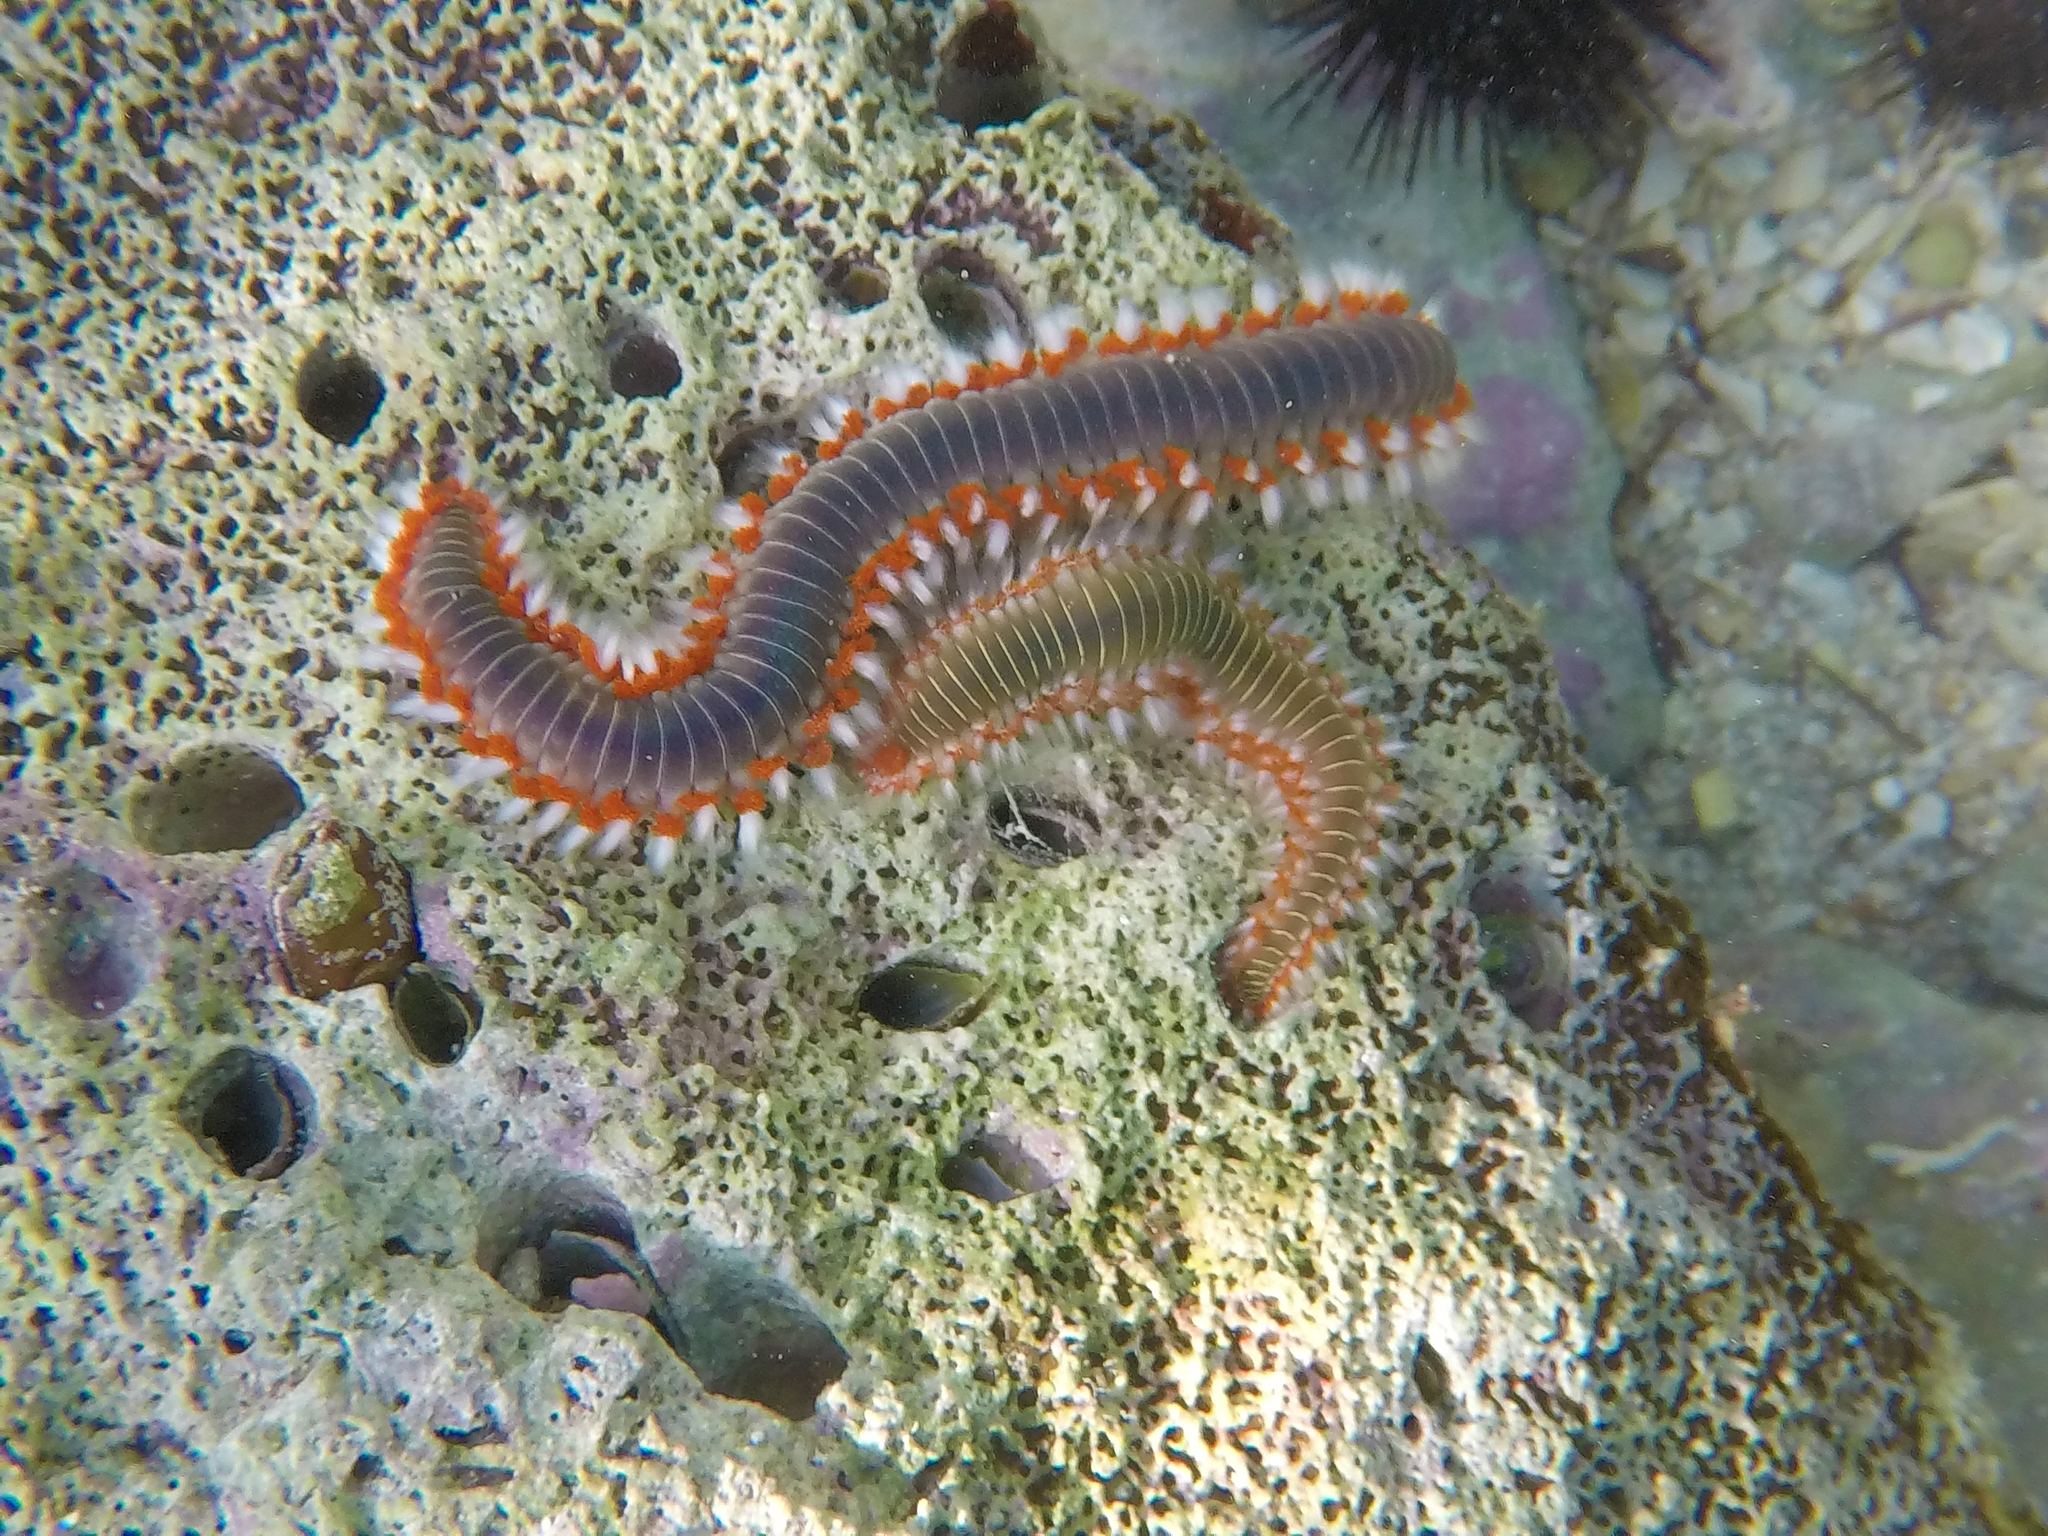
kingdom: Animalia
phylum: Annelida
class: Polychaeta
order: Amphinomida
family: Amphinomidae
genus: Hermodice
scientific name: Hermodice carunculata
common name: Bearded fireworm
